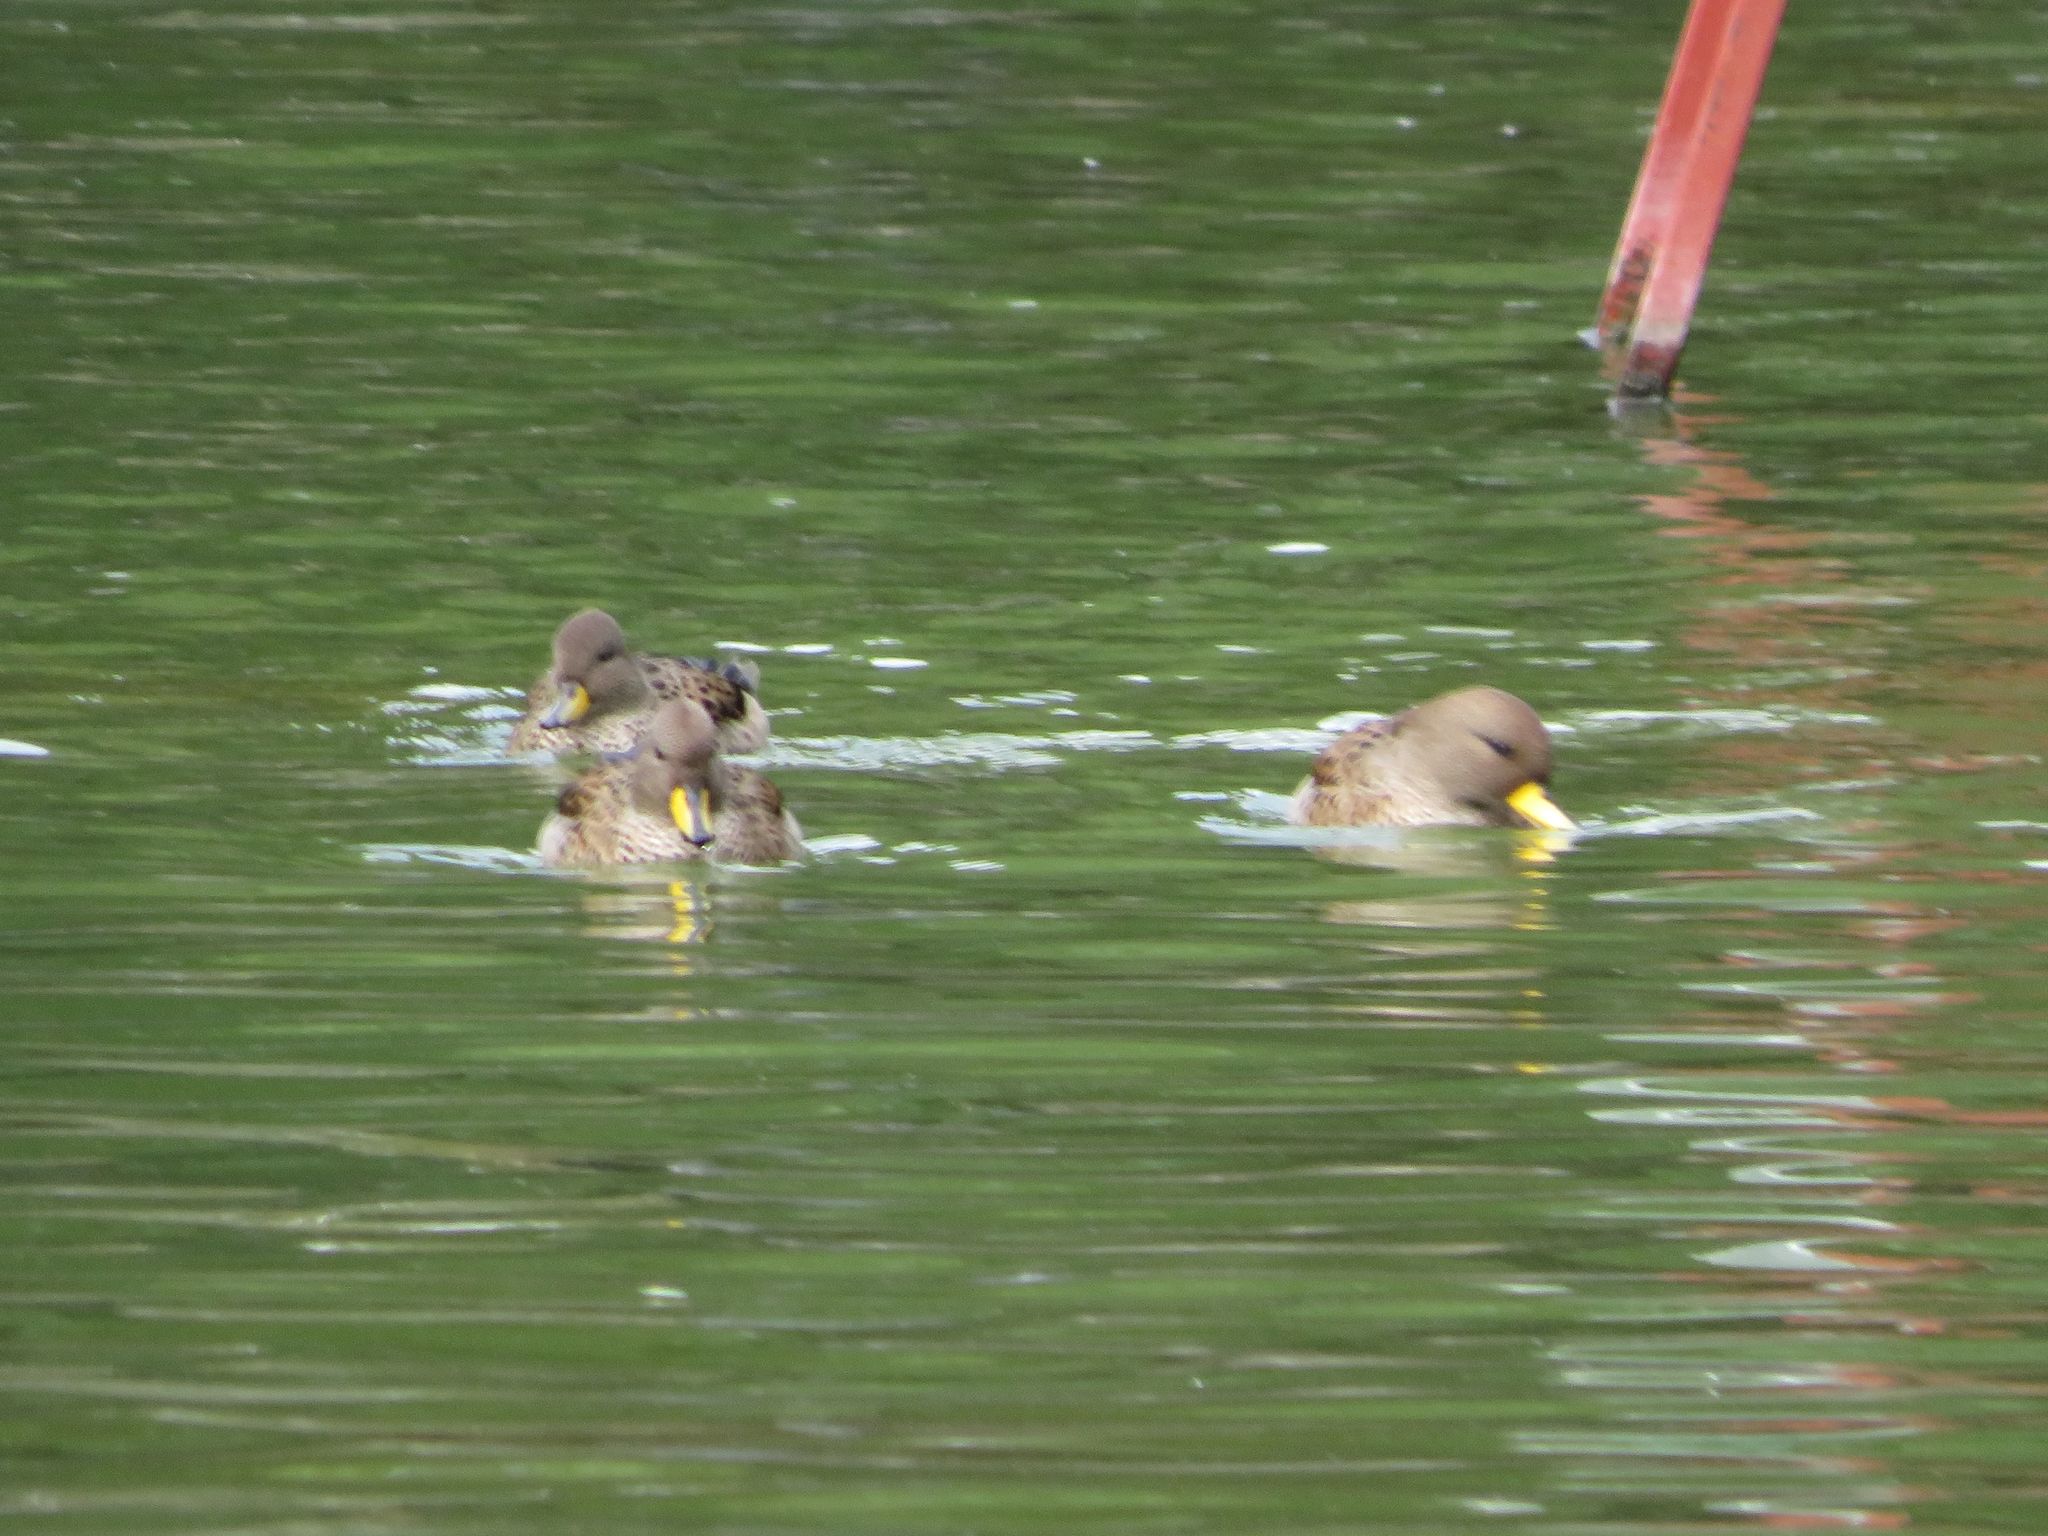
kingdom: Animalia
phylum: Chordata
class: Aves
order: Anseriformes
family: Anatidae
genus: Anas
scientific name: Anas flavirostris
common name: Yellow-billed teal
